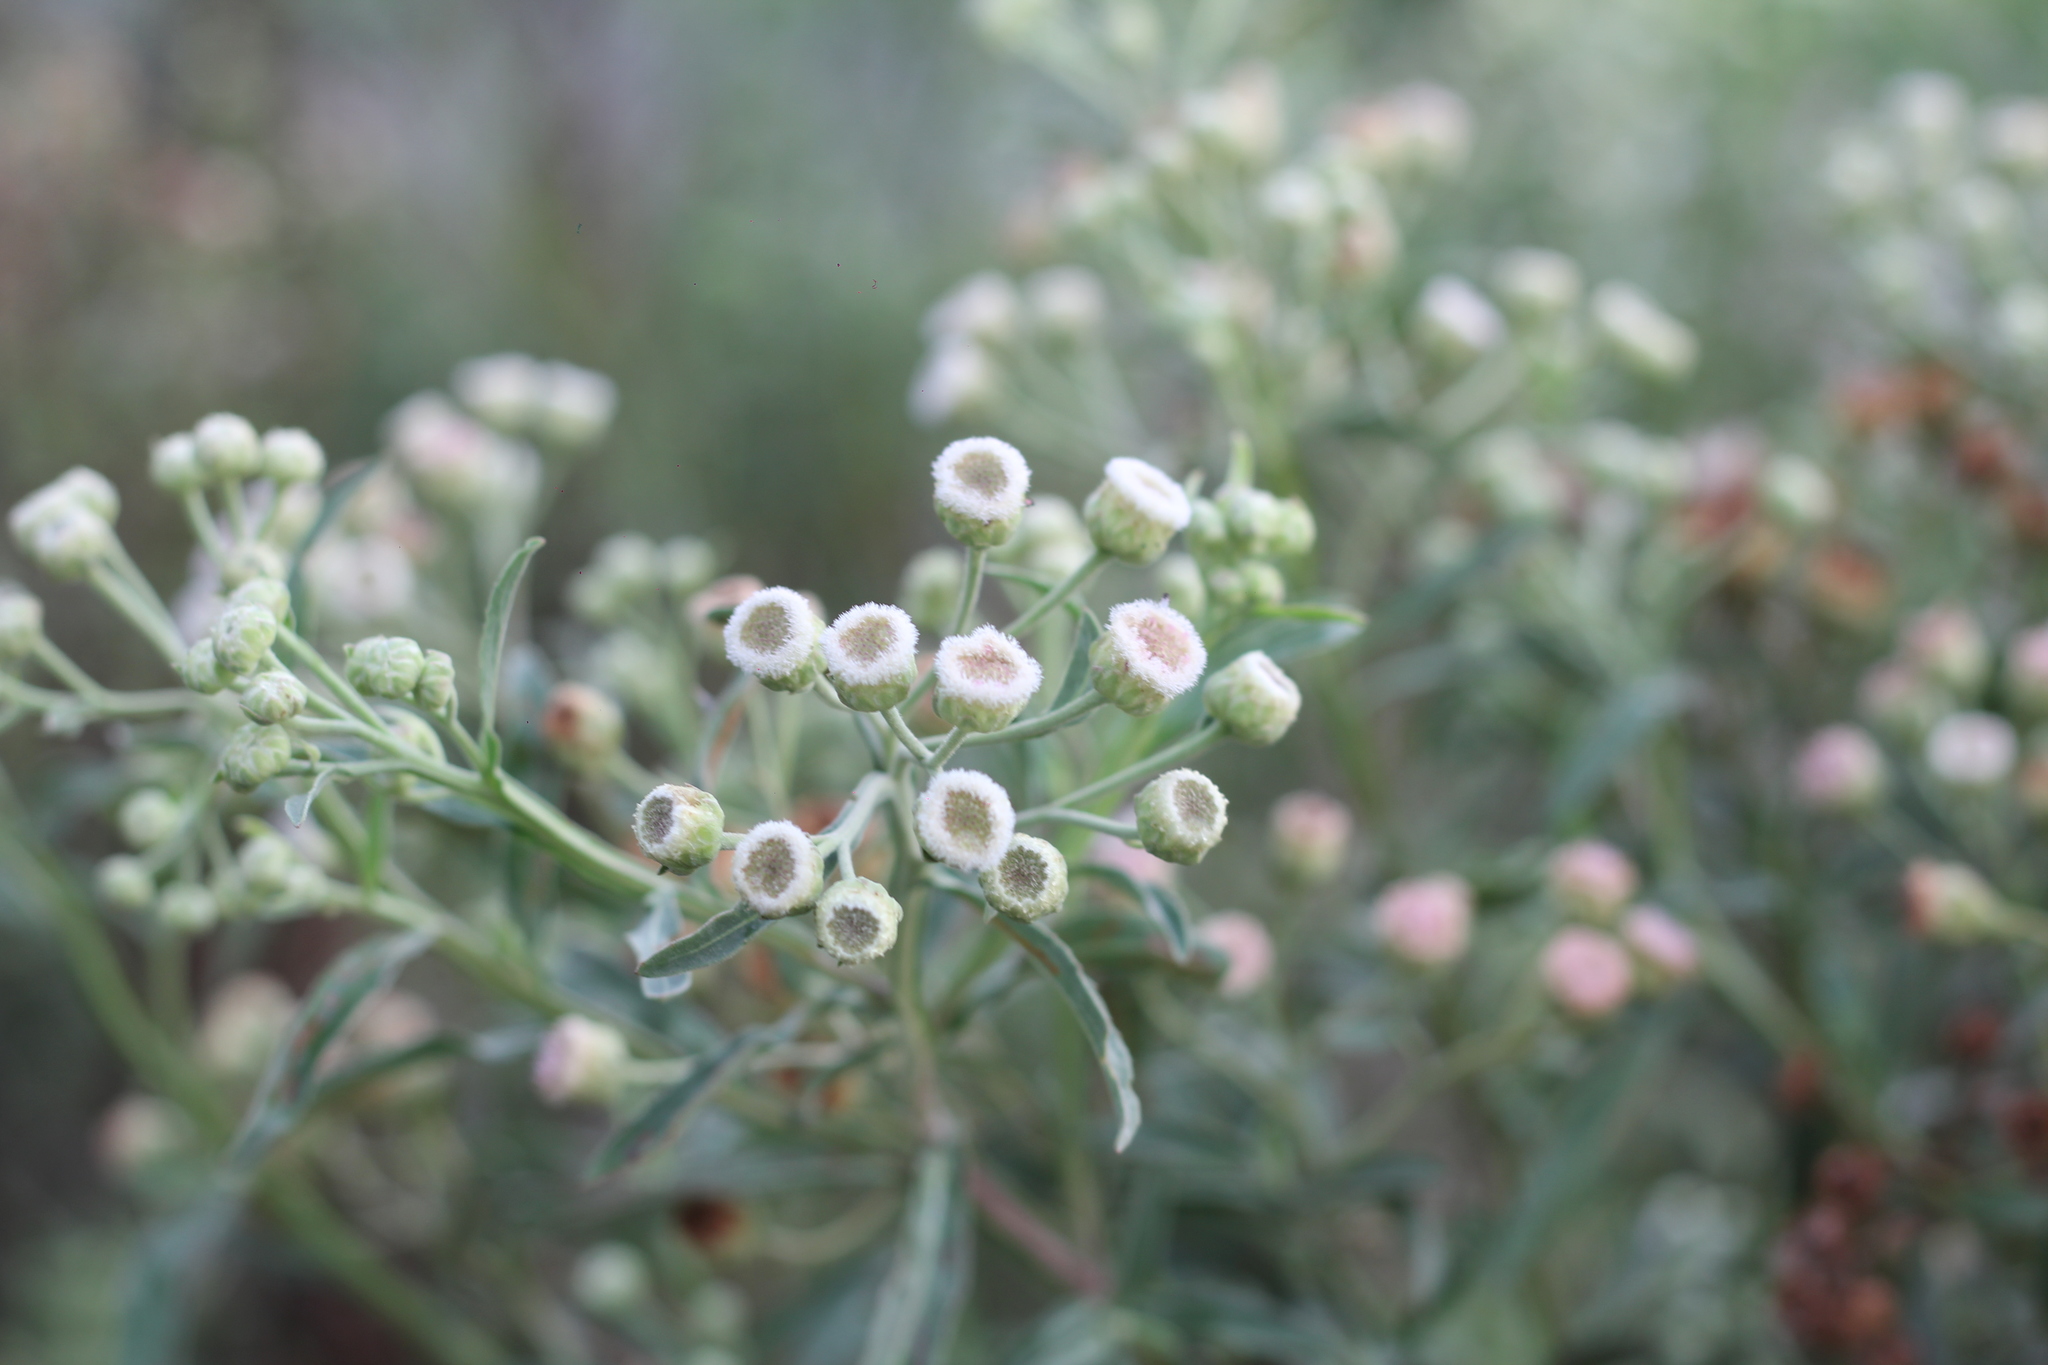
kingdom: Plantae
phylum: Tracheophyta
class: Magnoliopsida
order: Asterales
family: Asteraceae
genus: Pluchea
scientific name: Pluchea sagittalis
